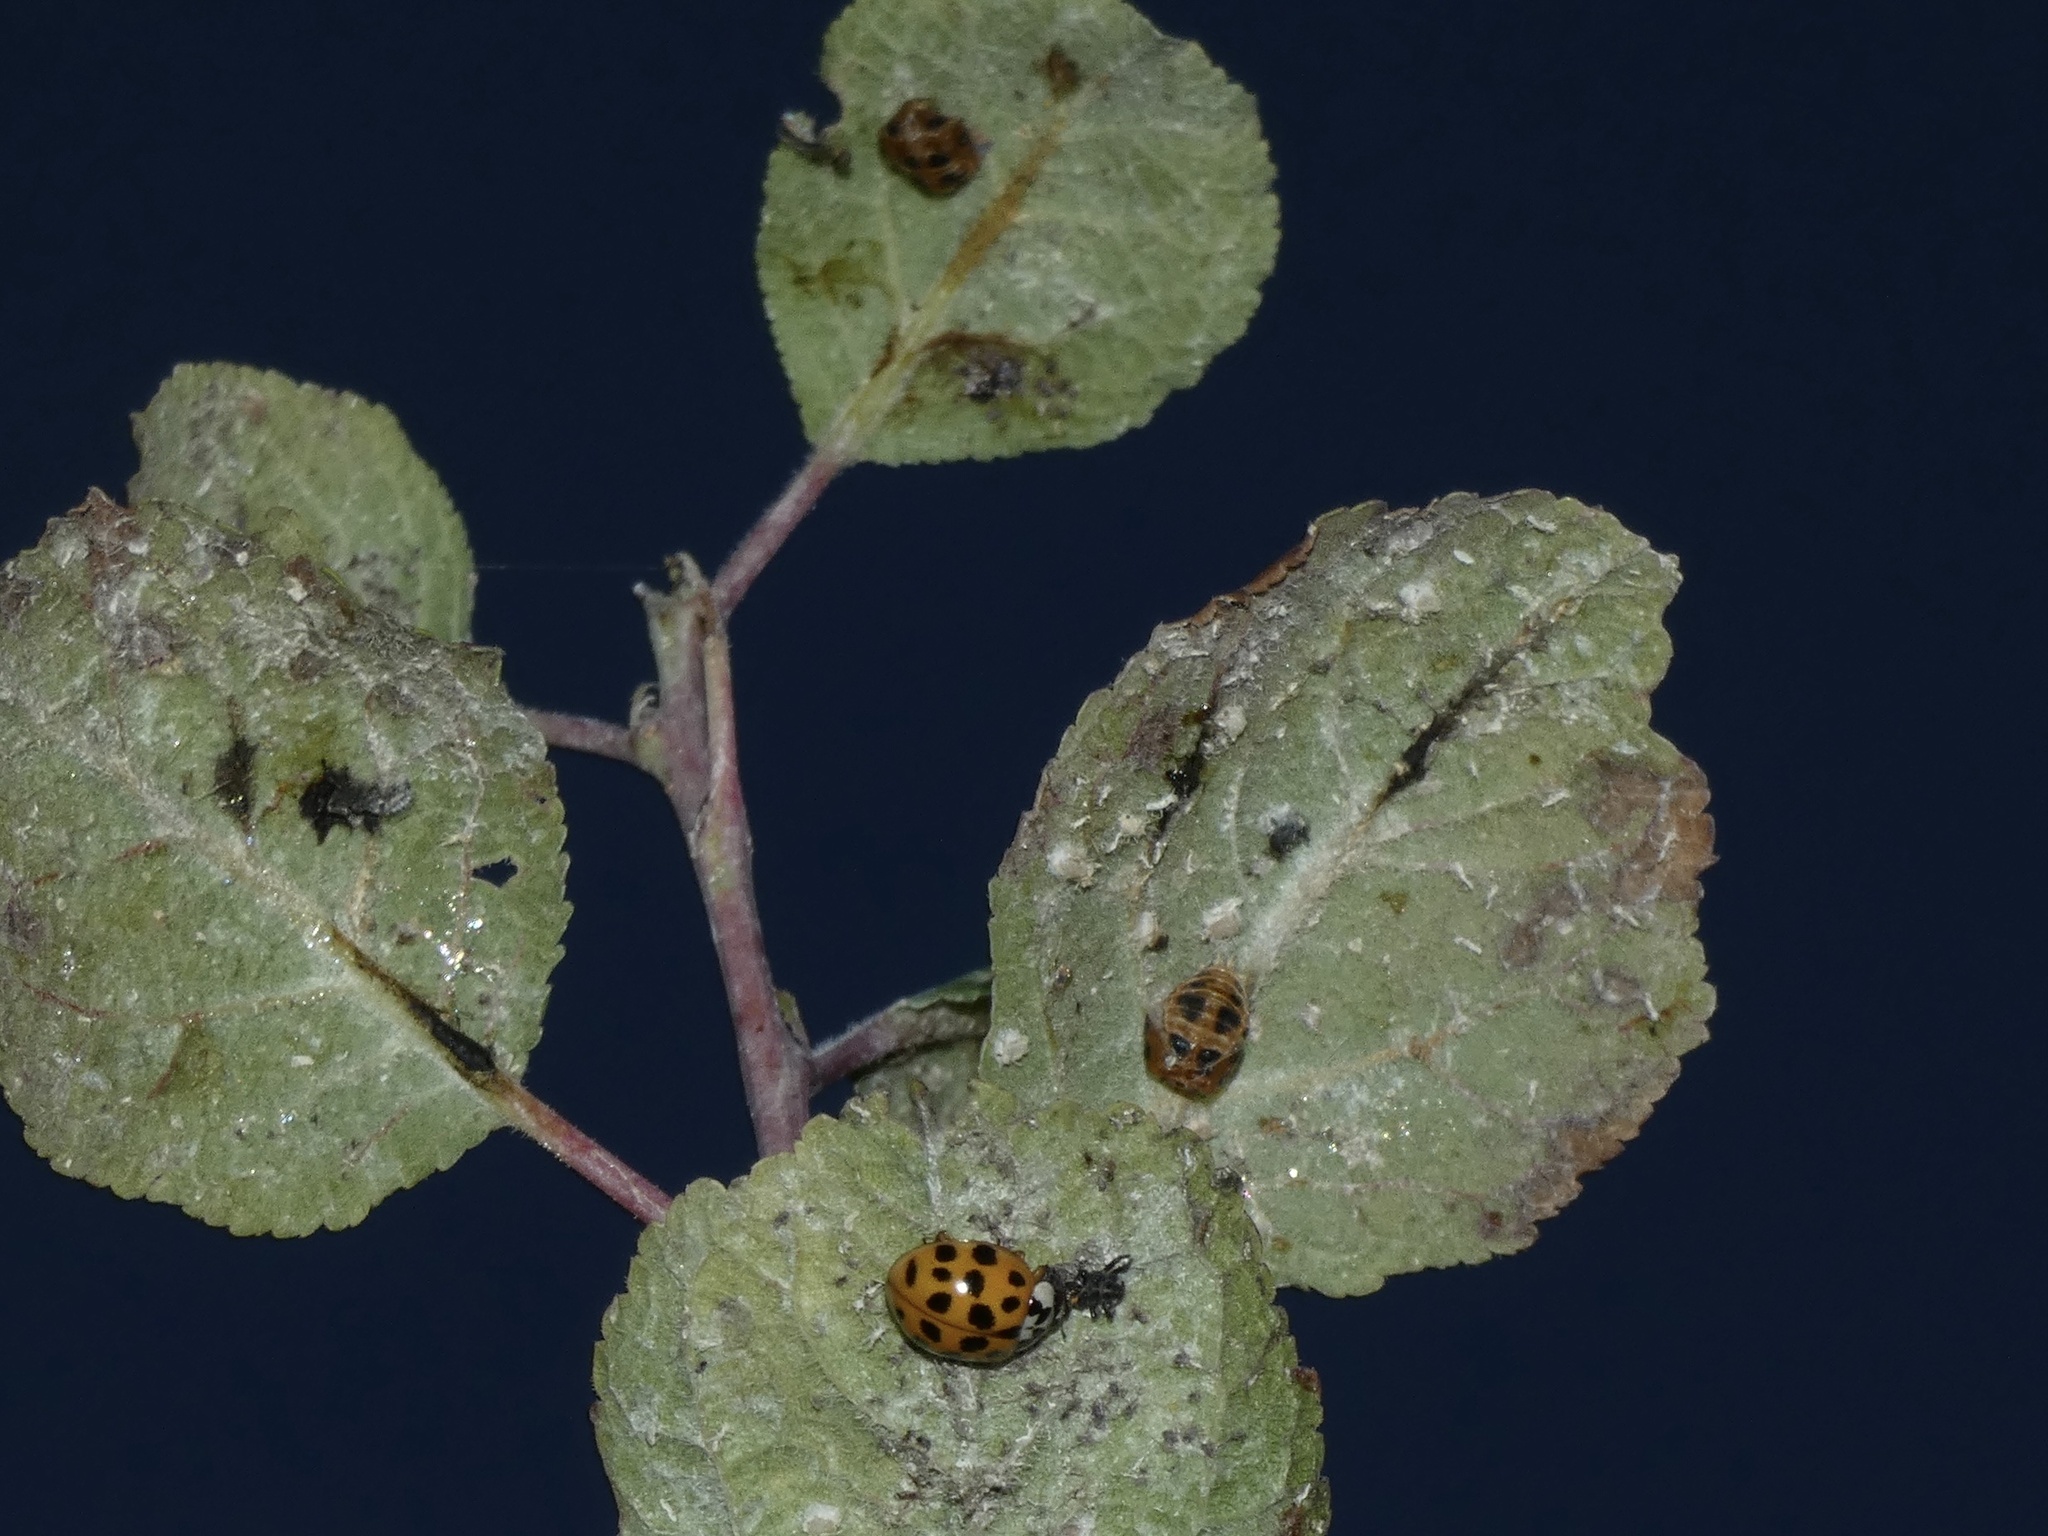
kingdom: Animalia
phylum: Arthropoda
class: Insecta
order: Coleoptera
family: Coccinellidae
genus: Harmonia
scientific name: Harmonia axyridis
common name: Harlequin ladybird
